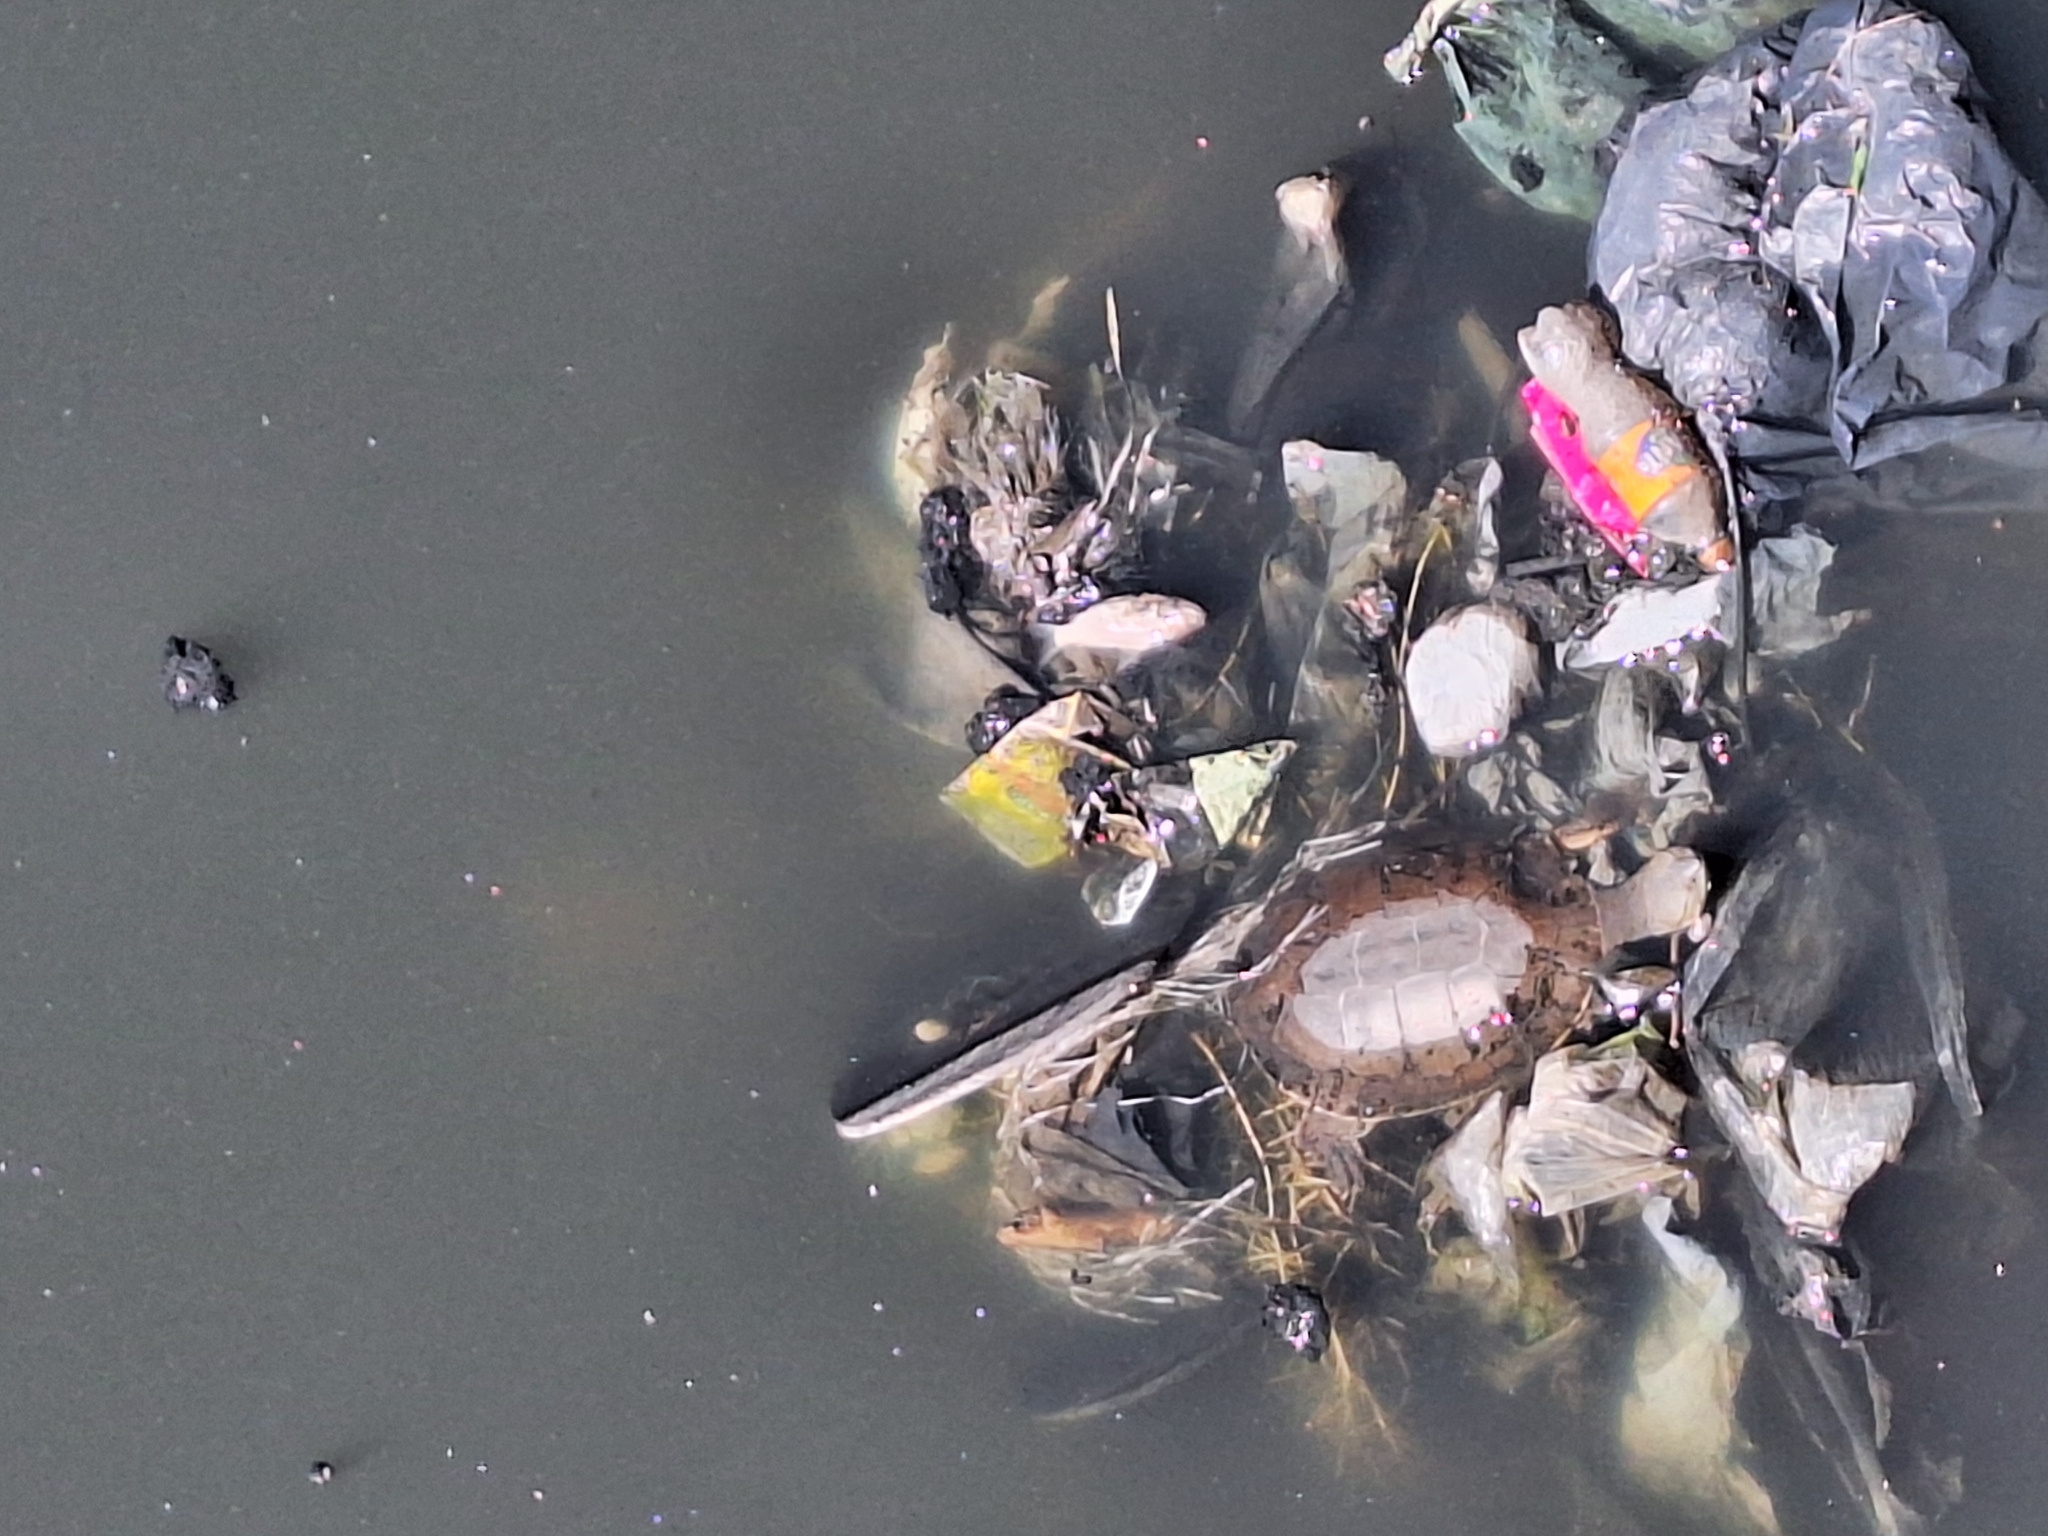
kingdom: Animalia
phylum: Chordata
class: Testudines
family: Chelidae
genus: Phrynops
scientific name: Phrynops hilarii
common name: Side-necked turtle of saint hillaire
